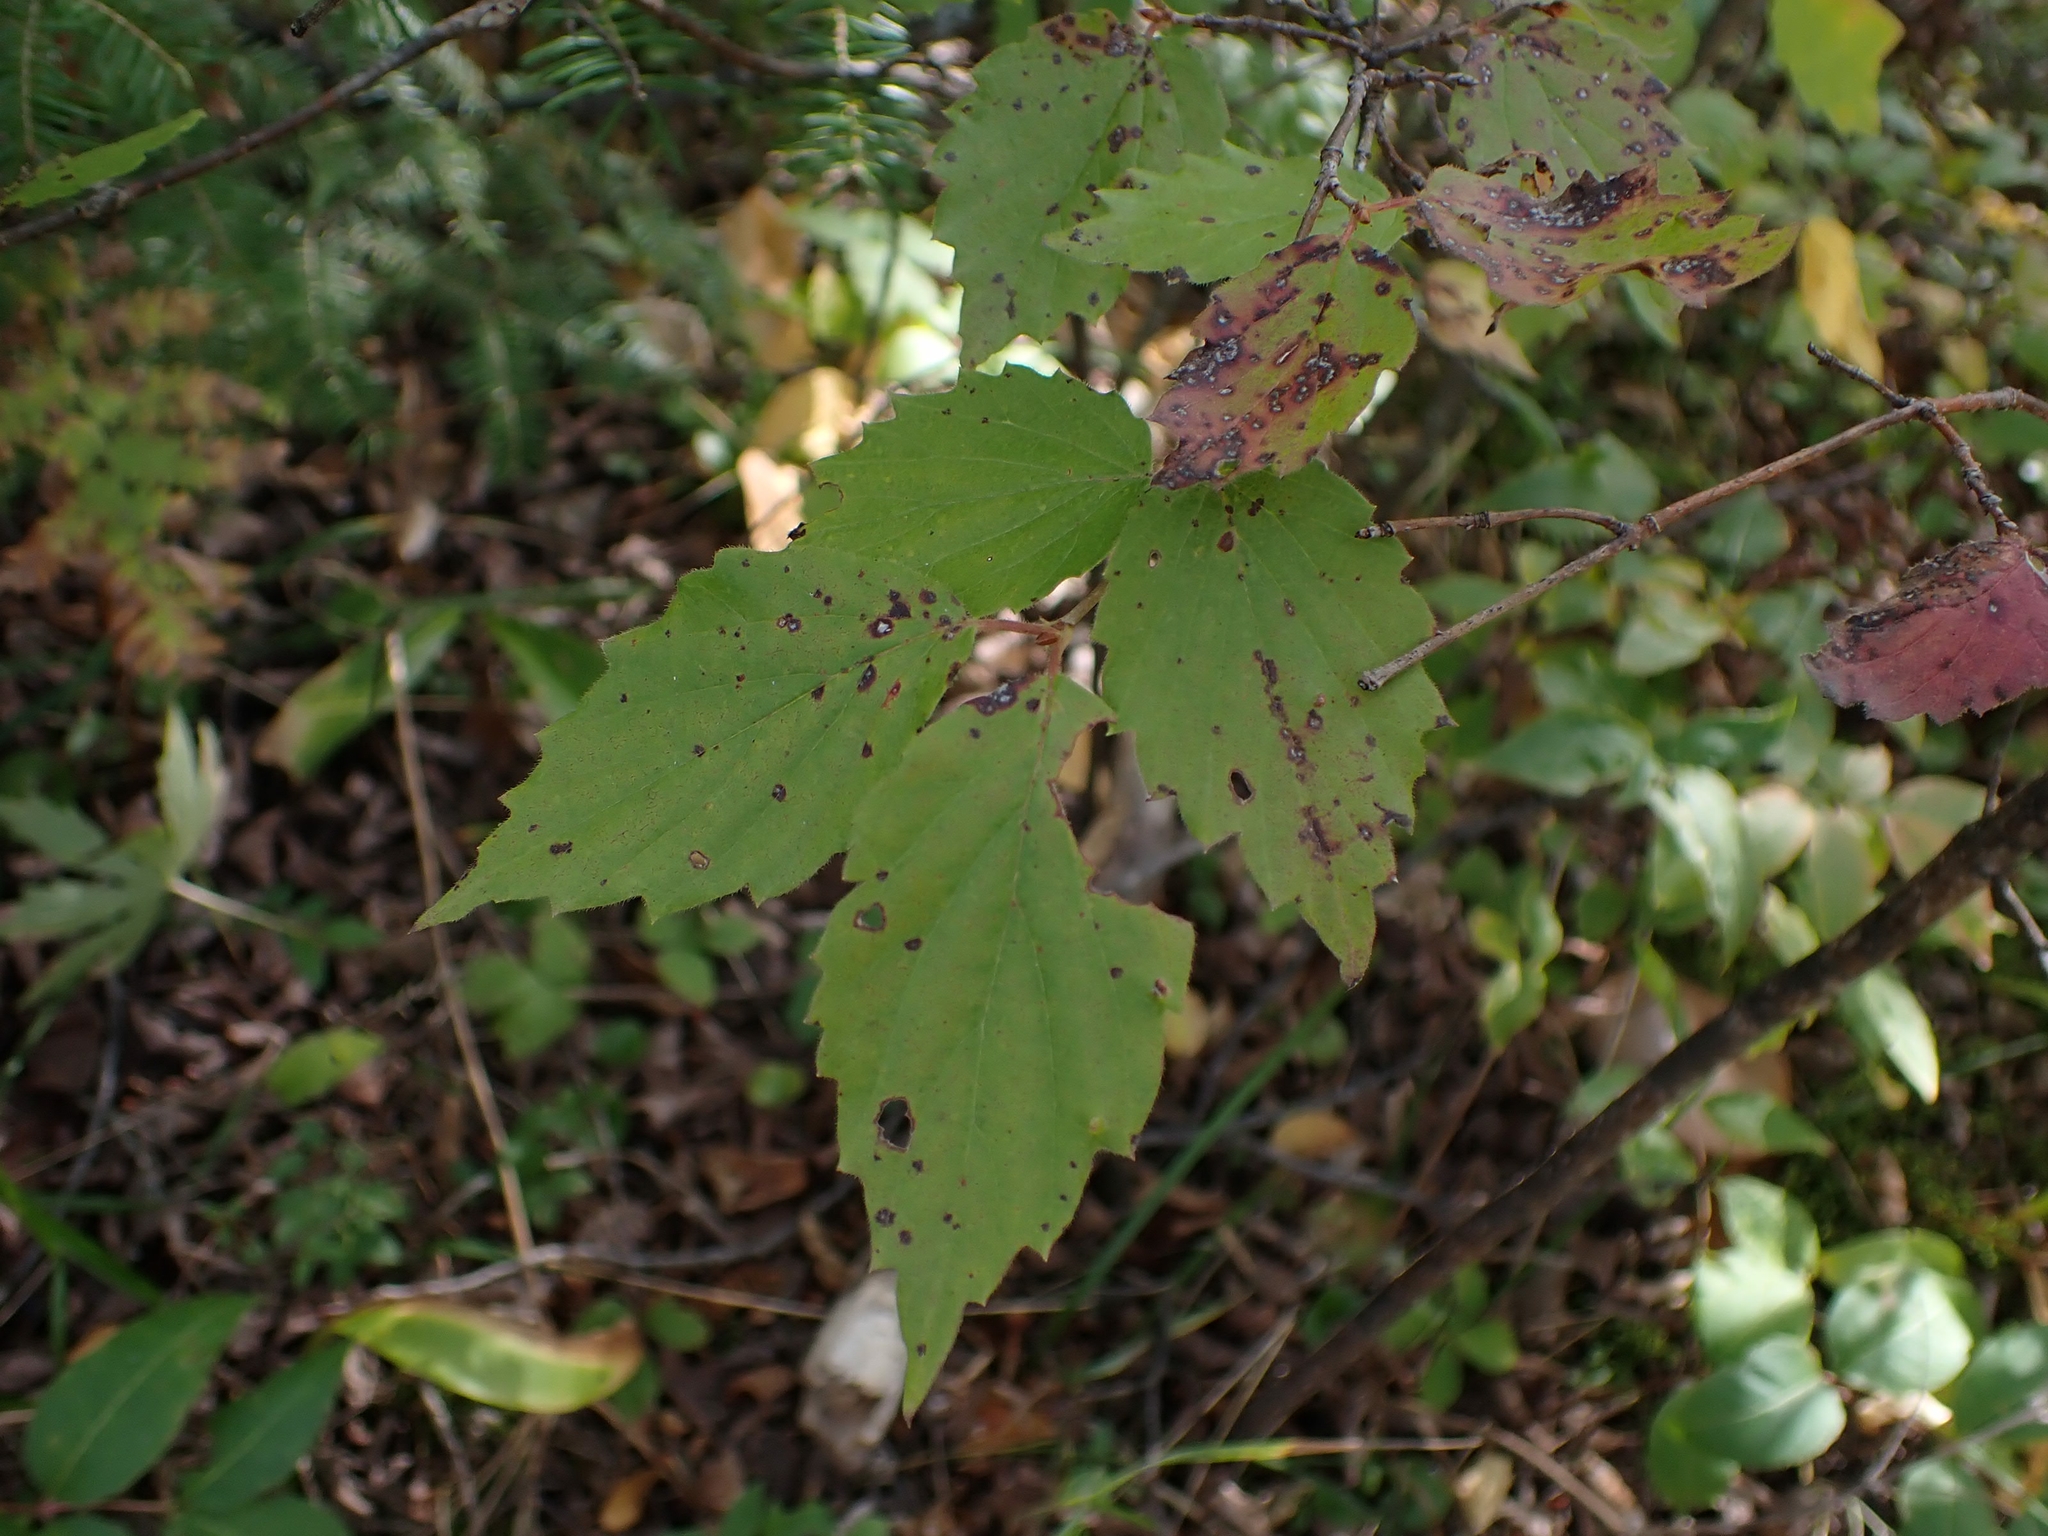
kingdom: Plantae
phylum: Tracheophyta
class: Magnoliopsida
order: Dipsacales
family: Viburnaceae
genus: Viburnum
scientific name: Viburnum rafinesqueanum
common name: Downy arrow-wood
